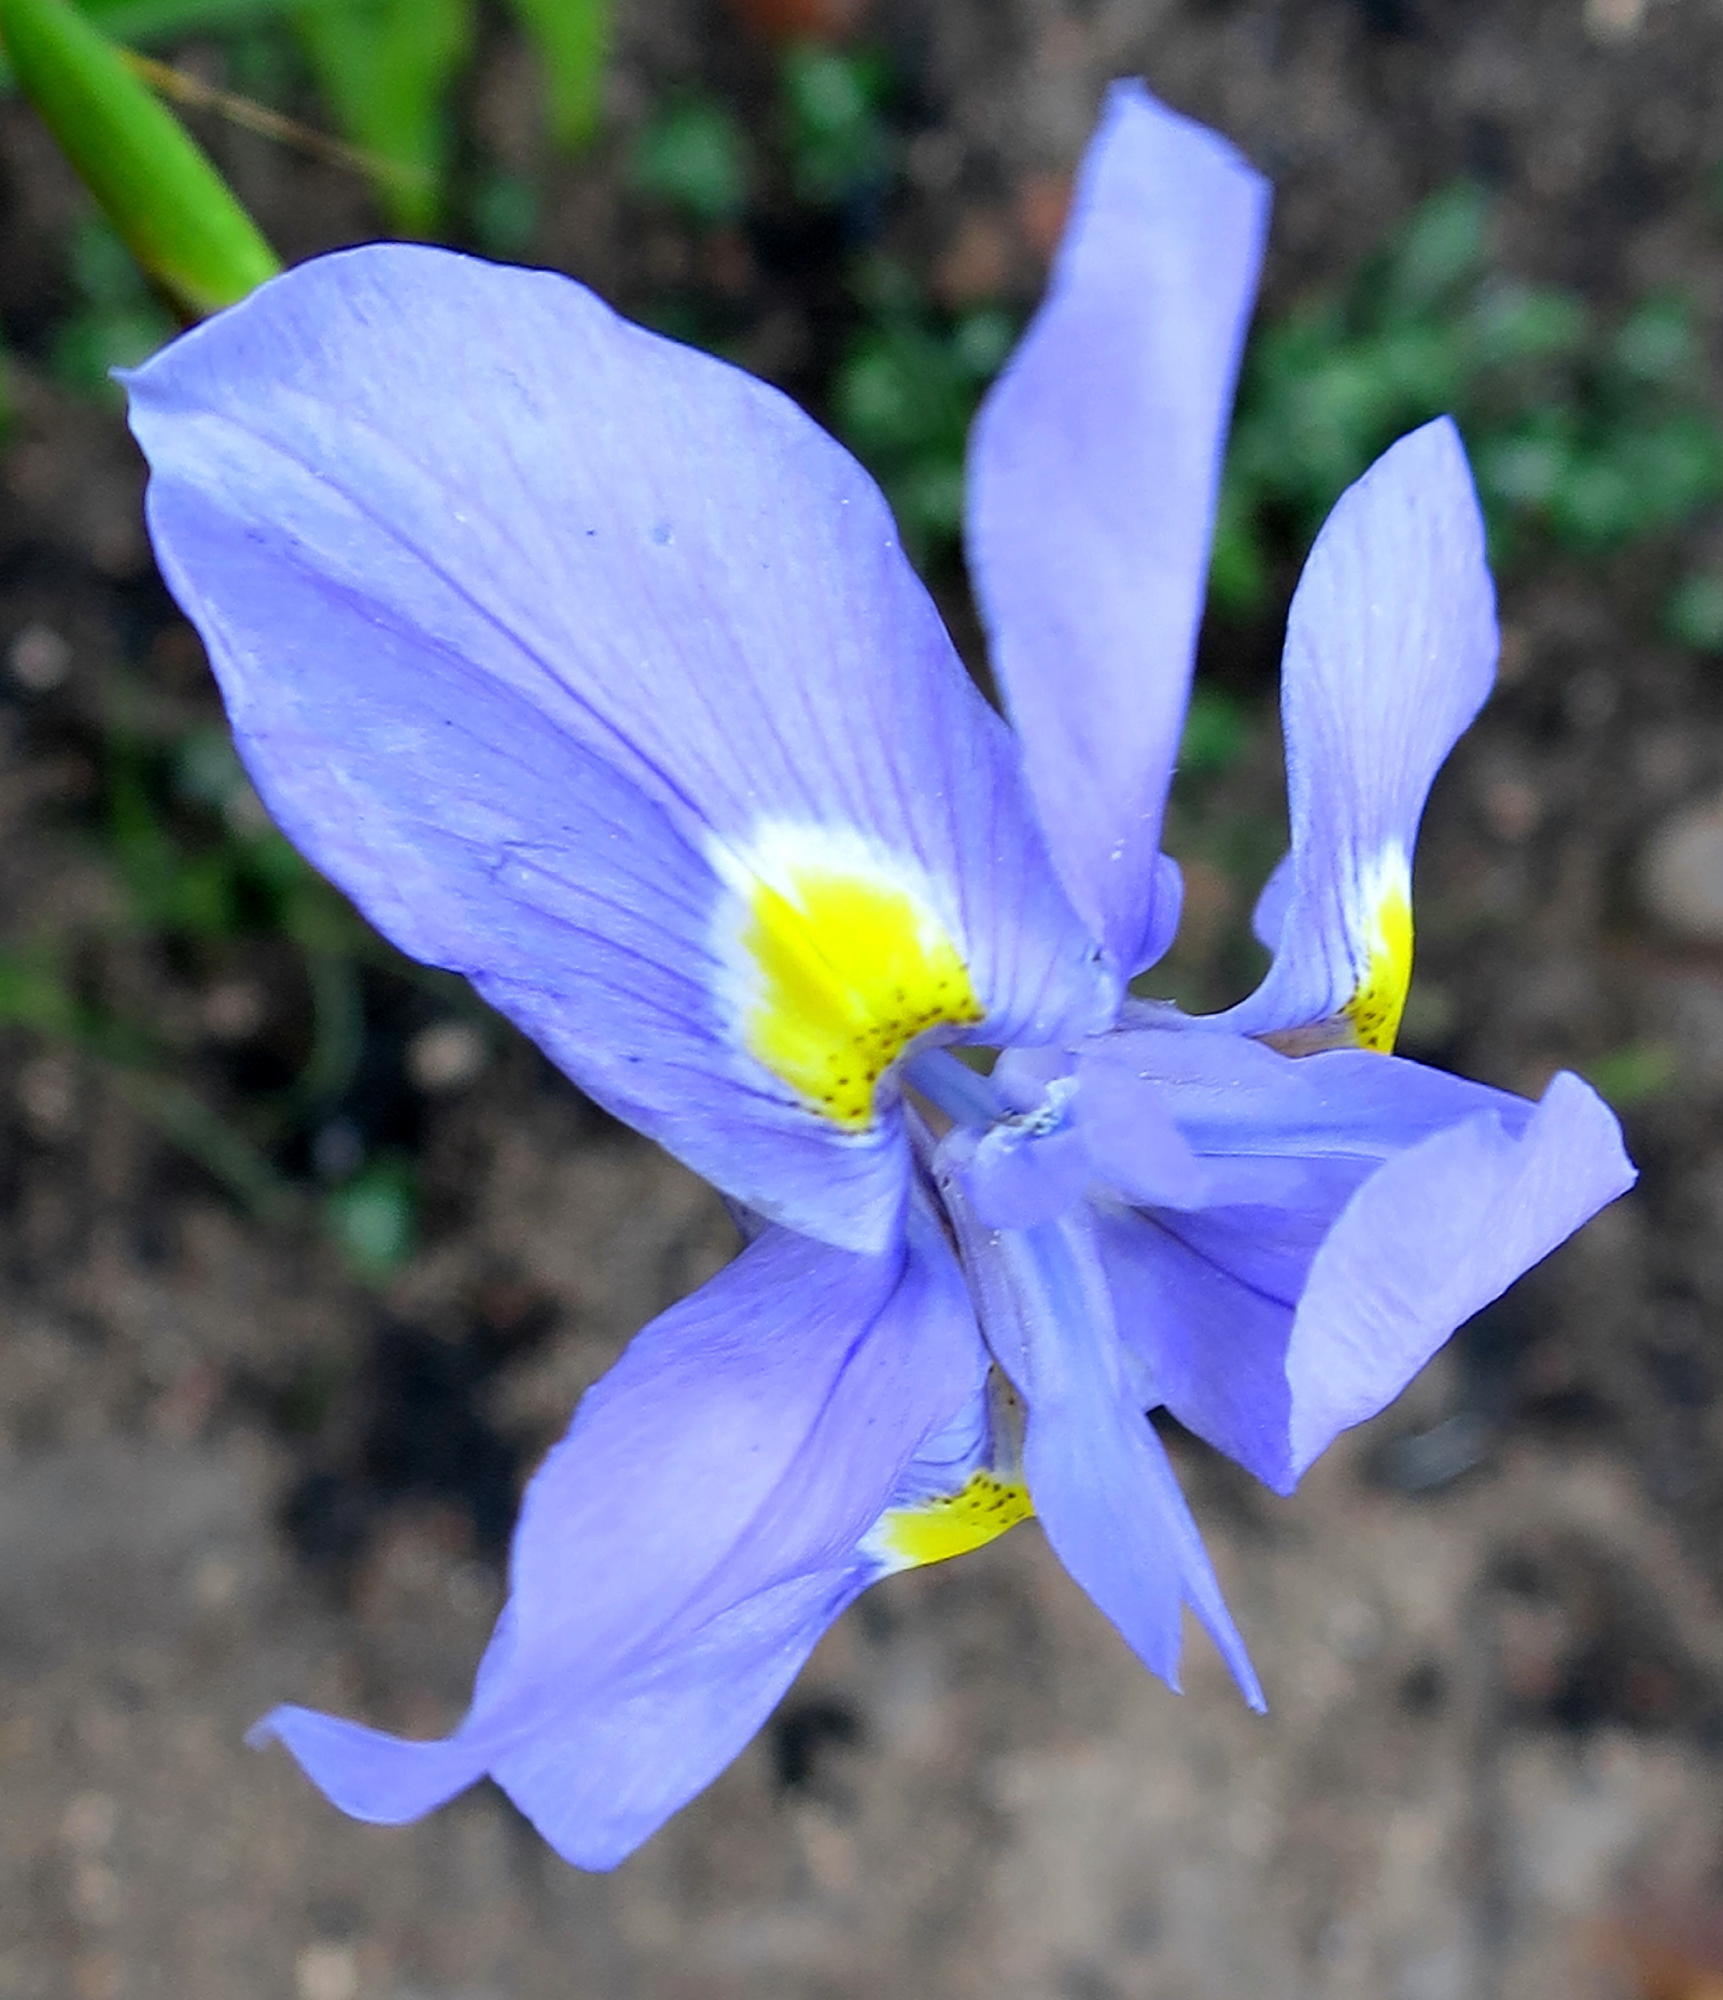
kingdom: Plantae
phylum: Tracheophyta
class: Liliopsida
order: Asparagales
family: Iridaceae
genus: Moraea
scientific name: Moraea polystachya
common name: Blue-tulip
